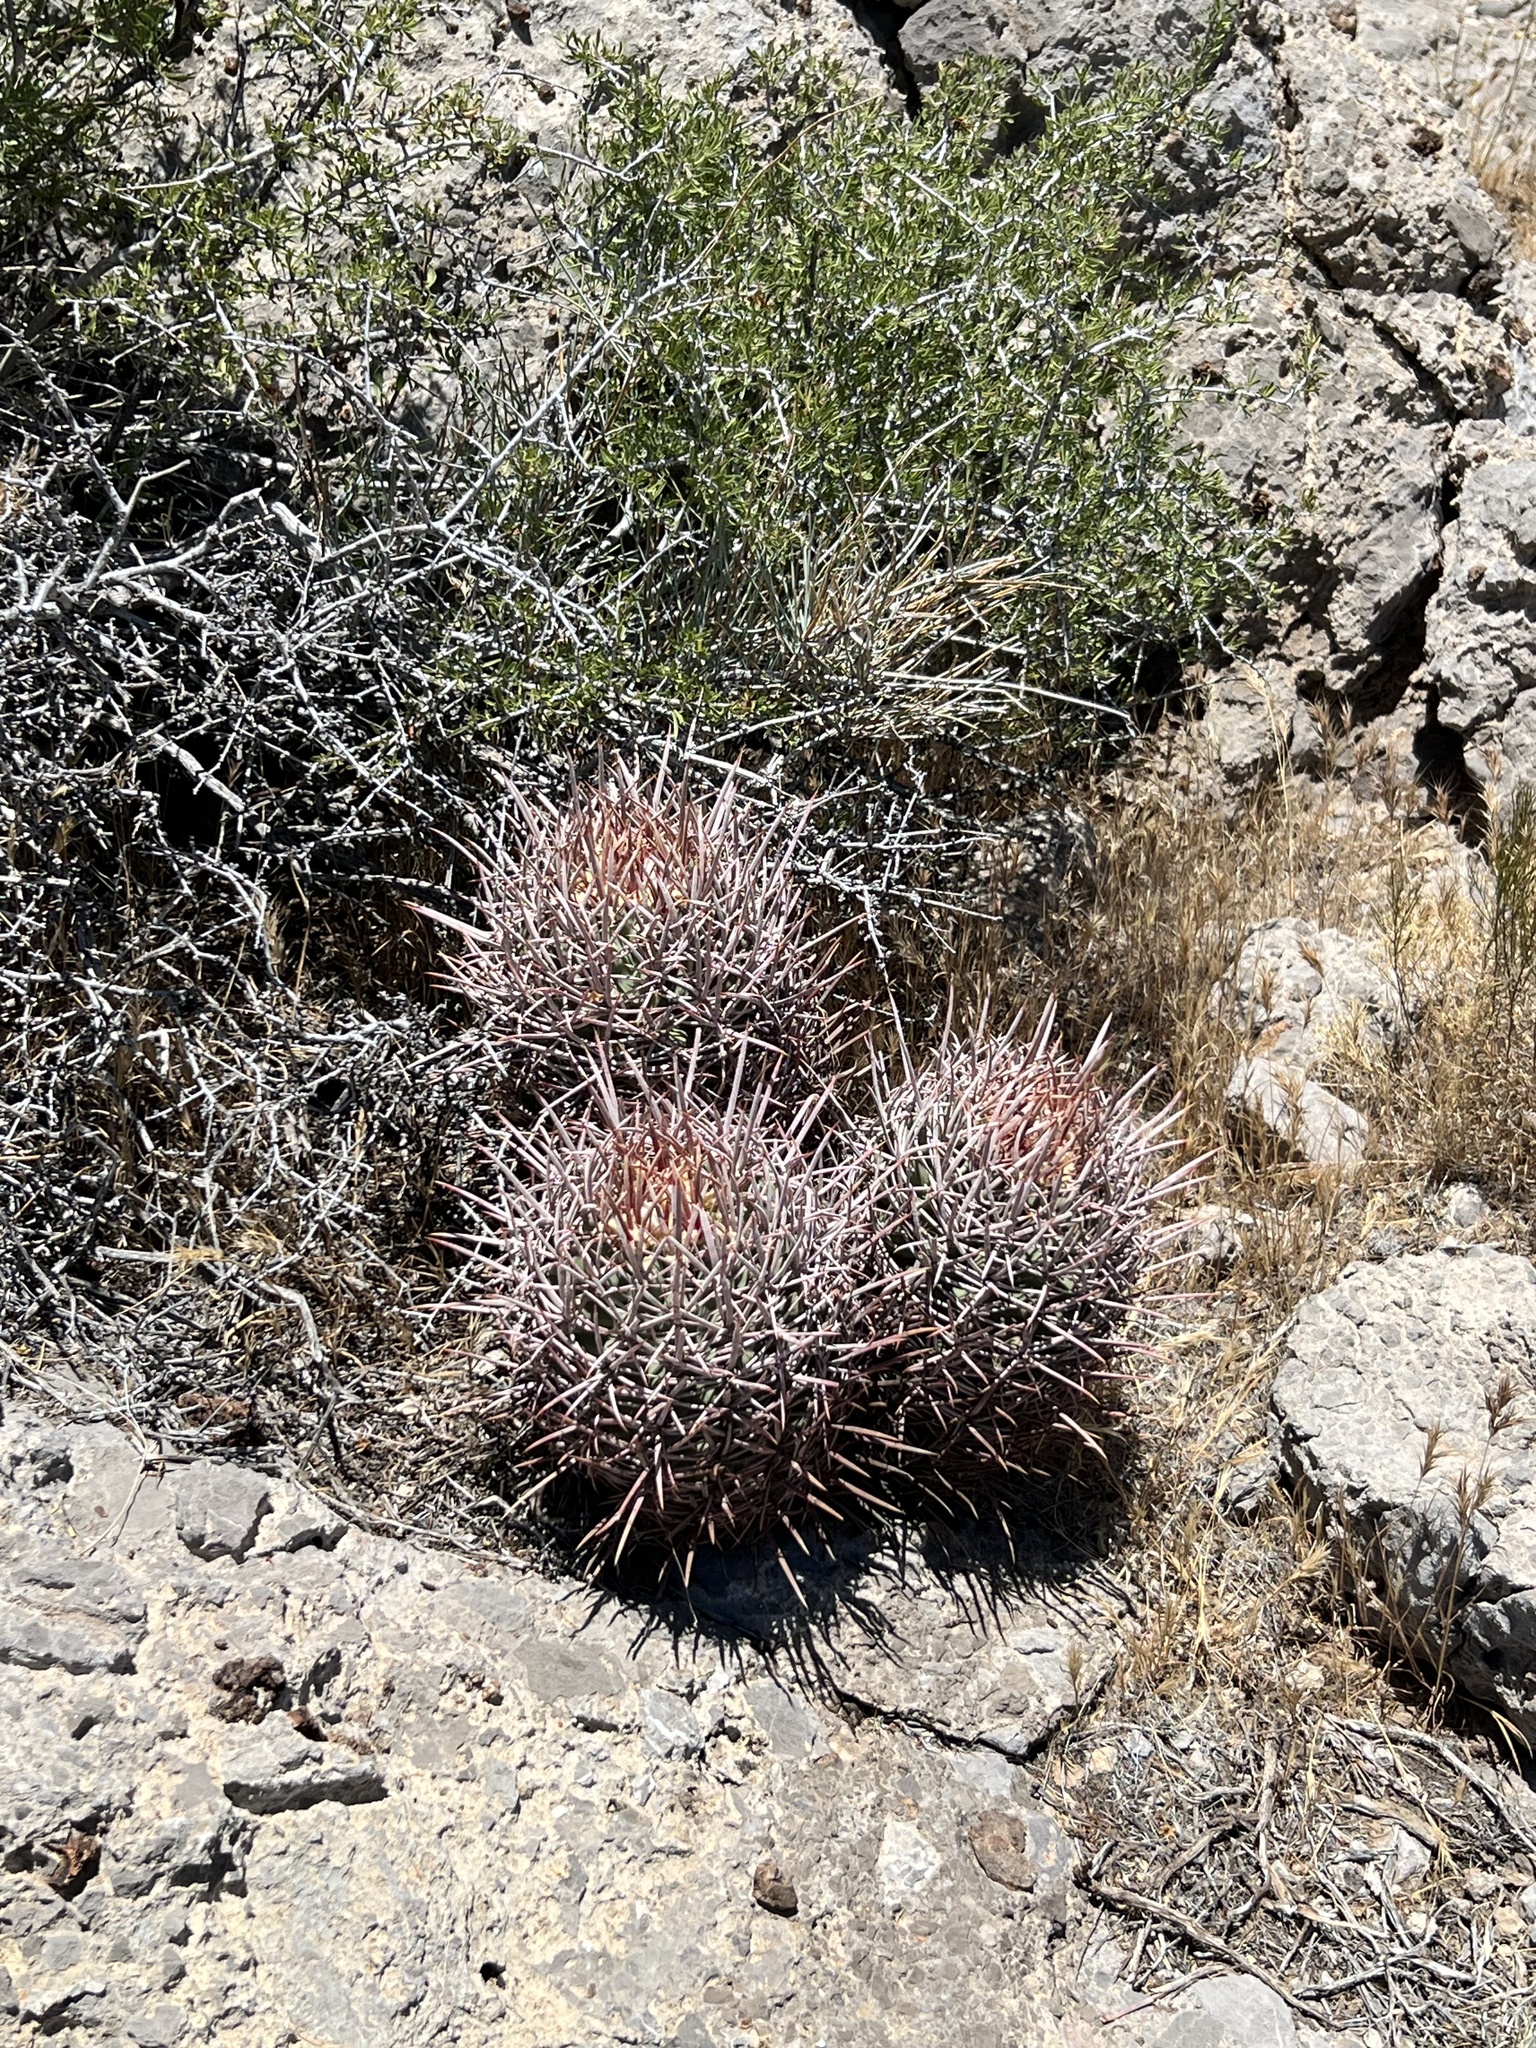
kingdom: Plantae
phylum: Tracheophyta
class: Magnoliopsida
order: Caryophyllales
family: Cactaceae
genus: Echinocactus
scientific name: Echinocactus polycephalus
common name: Cottontop cactus
